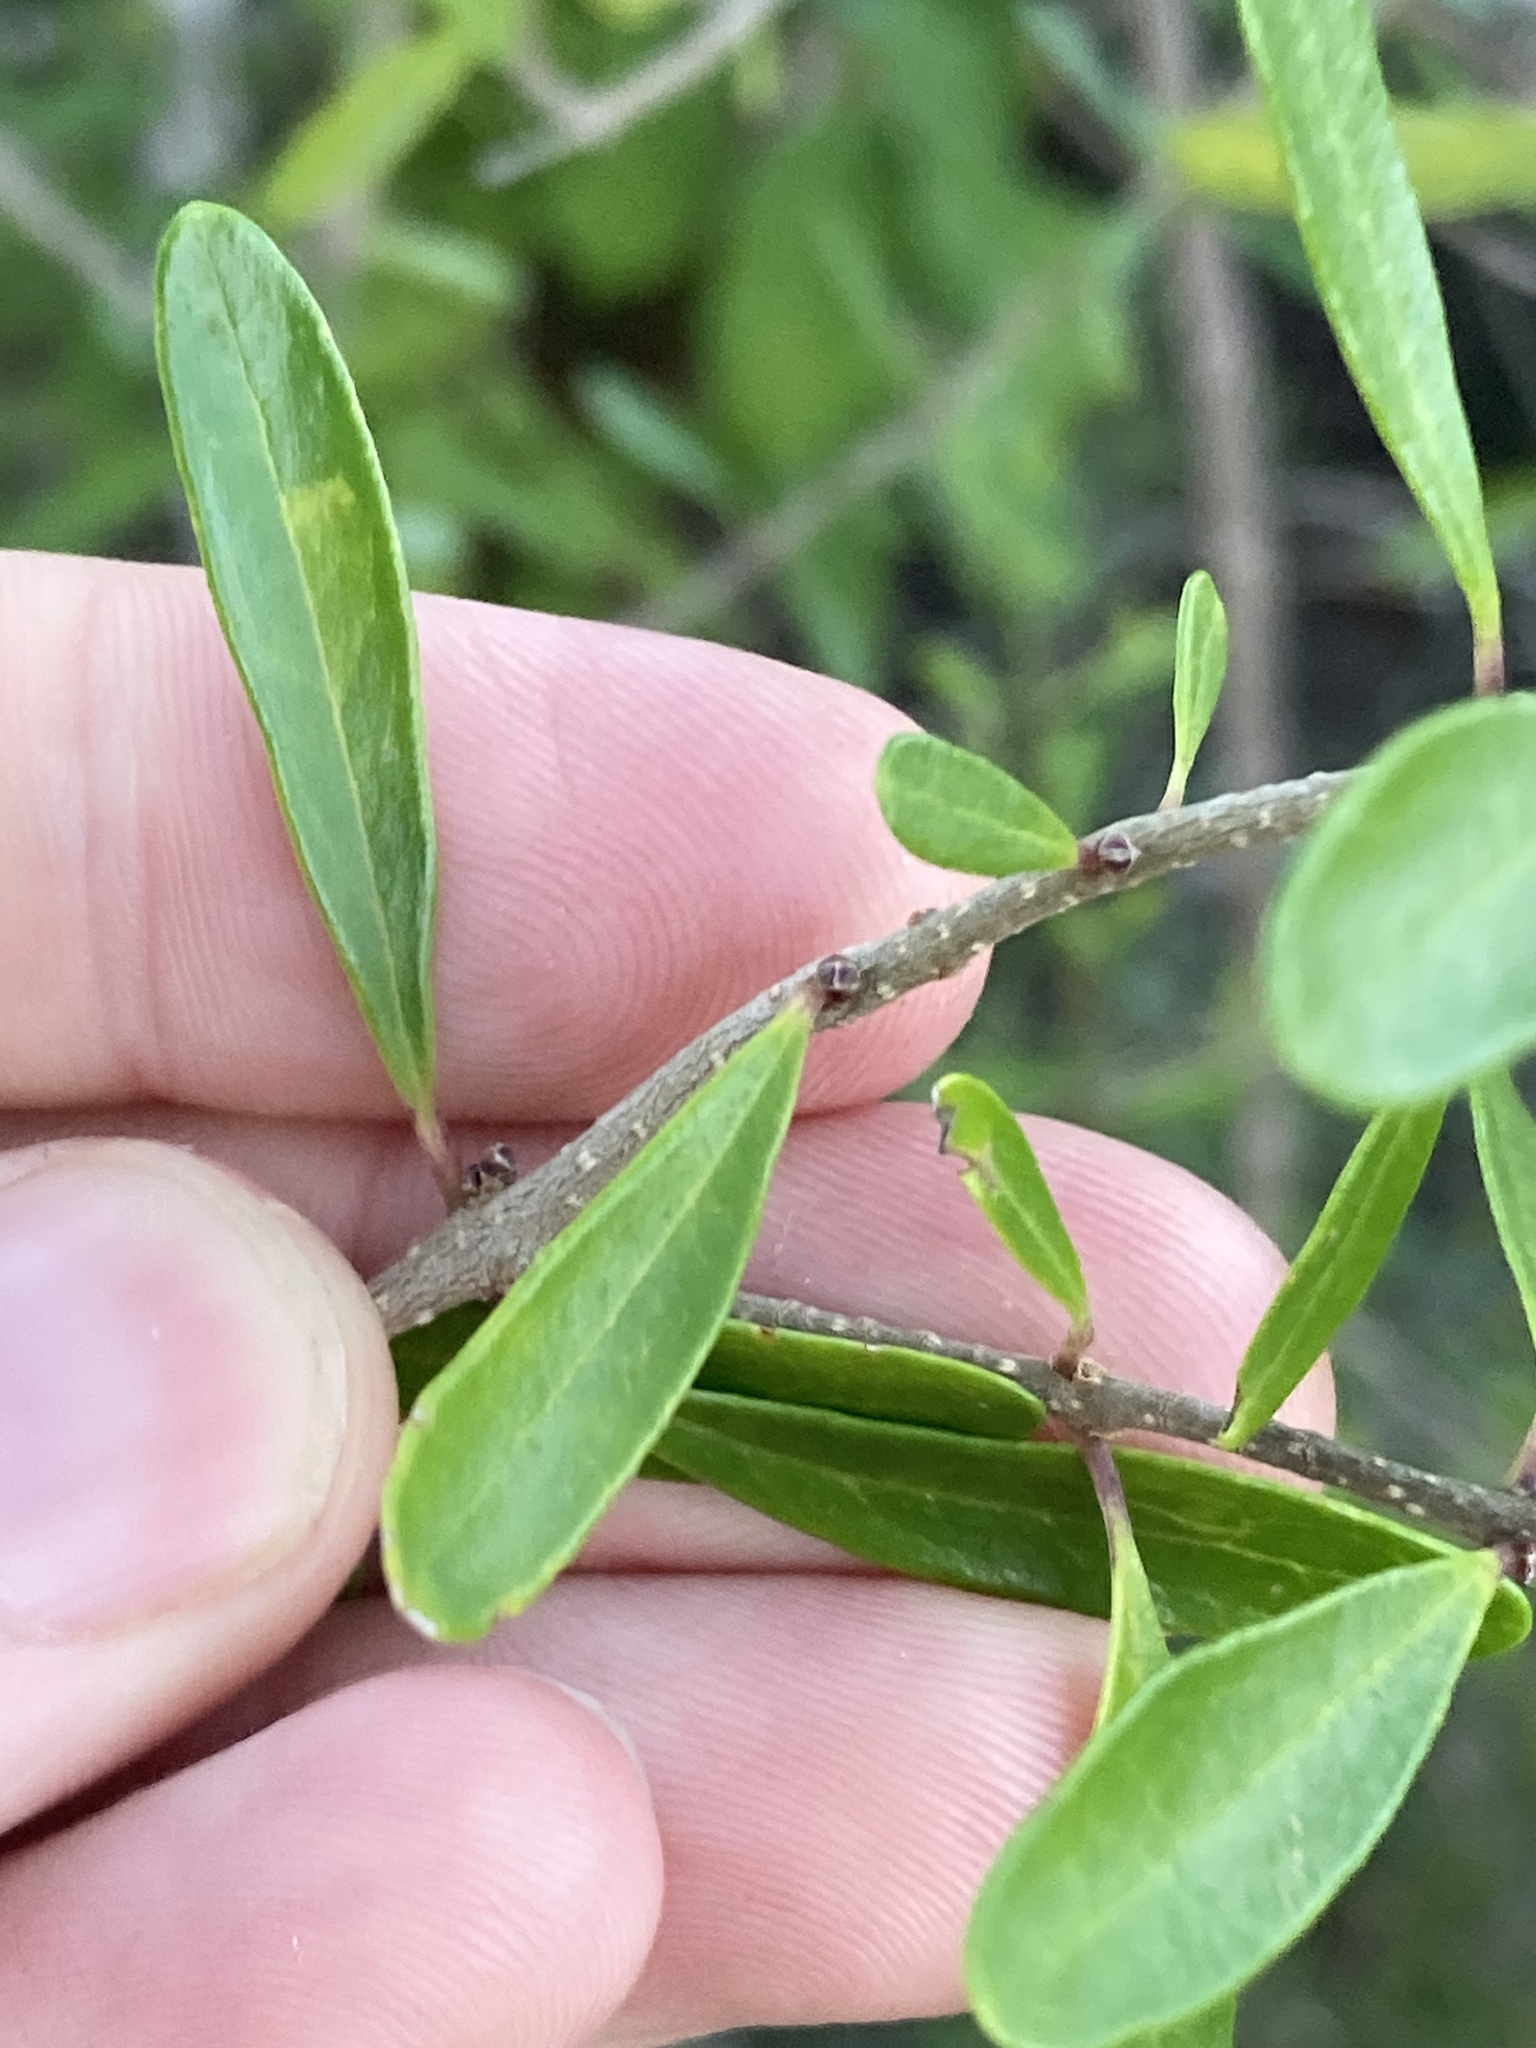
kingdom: Plantae
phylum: Tracheophyta
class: Magnoliopsida
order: Lamiales
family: Oleaceae
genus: Forestiera
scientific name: Forestiera segregata
